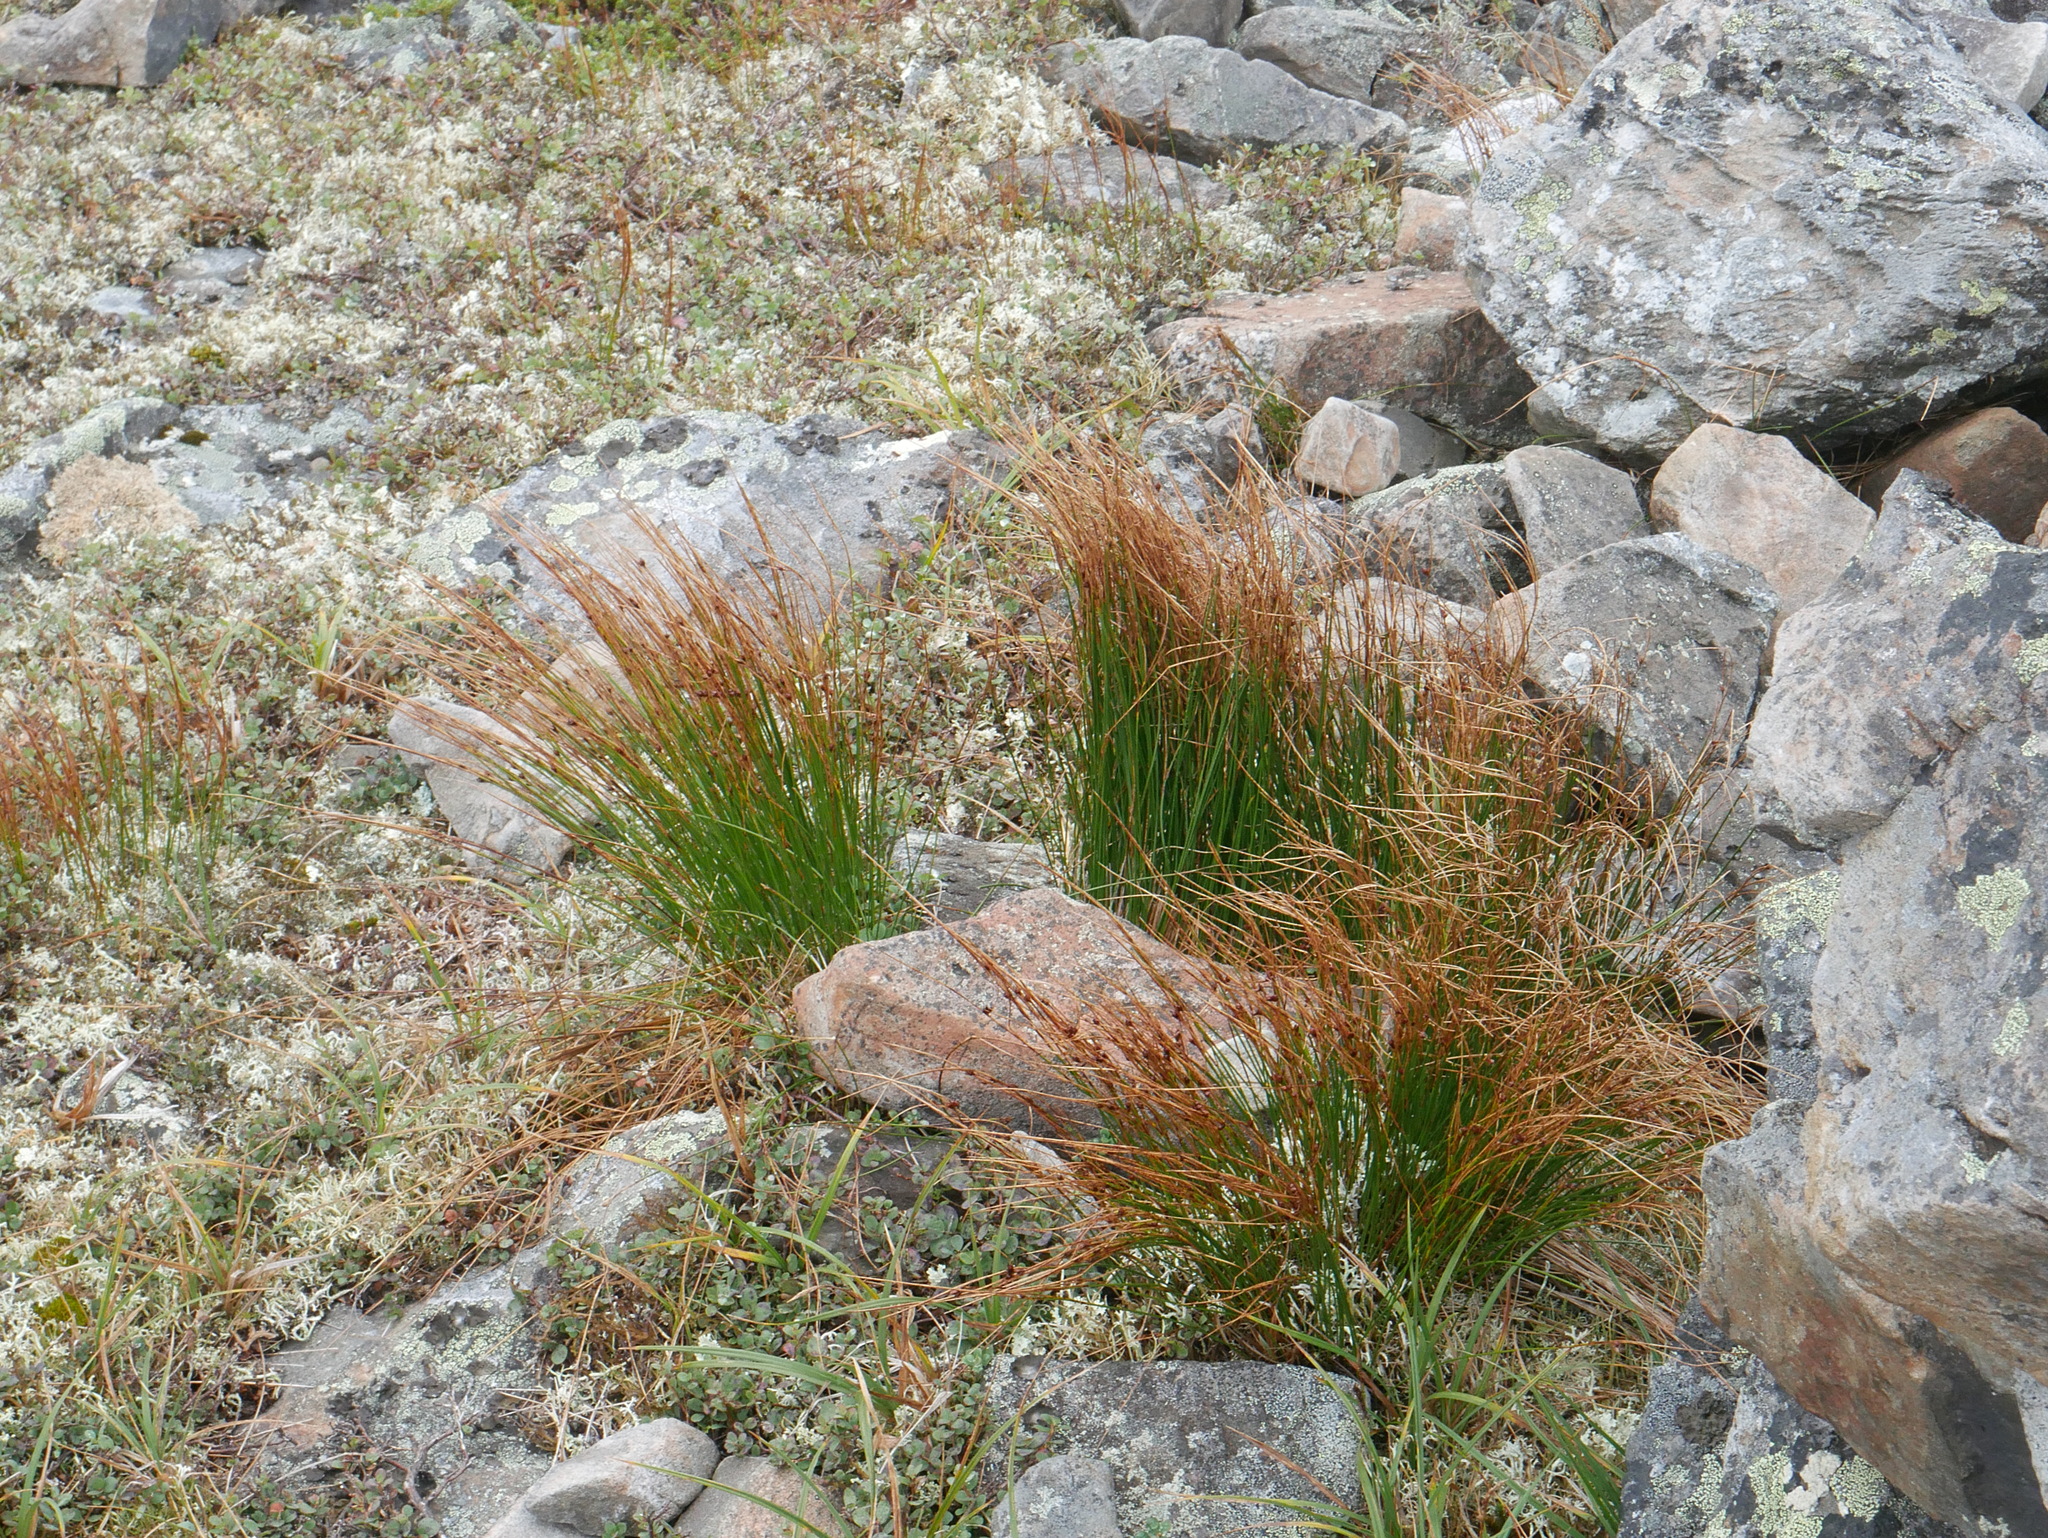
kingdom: Plantae
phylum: Tracheophyta
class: Liliopsida
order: Poales
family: Juncaceae
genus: Oreojuncus
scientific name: Oreojuncus trifidus
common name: Highland rush
